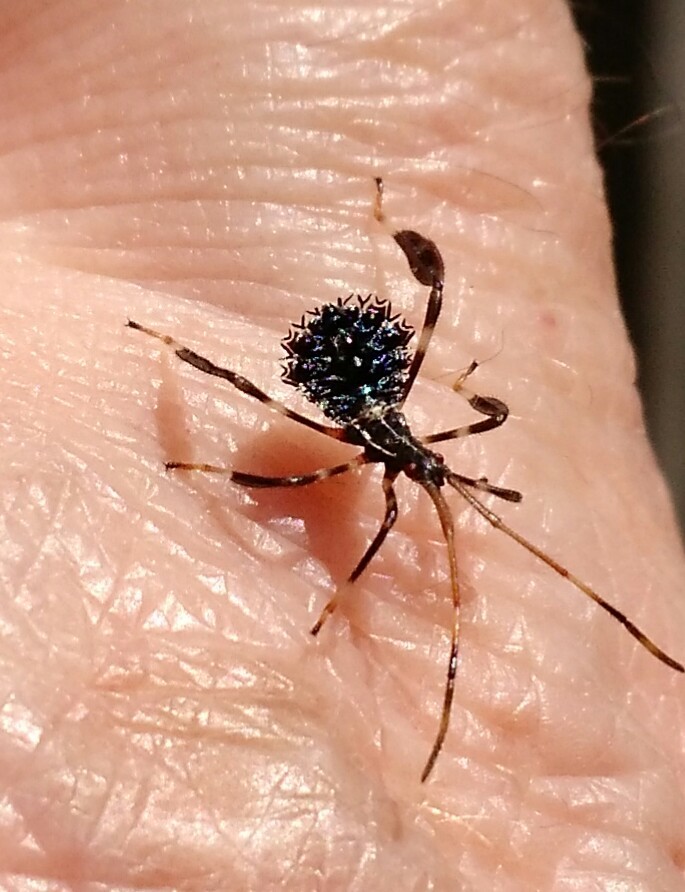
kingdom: Animalia
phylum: Arthropoda
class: Insecta
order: Hemiptera
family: Coreidae
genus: Acanthocephala
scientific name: Acanthocephala terminalis
